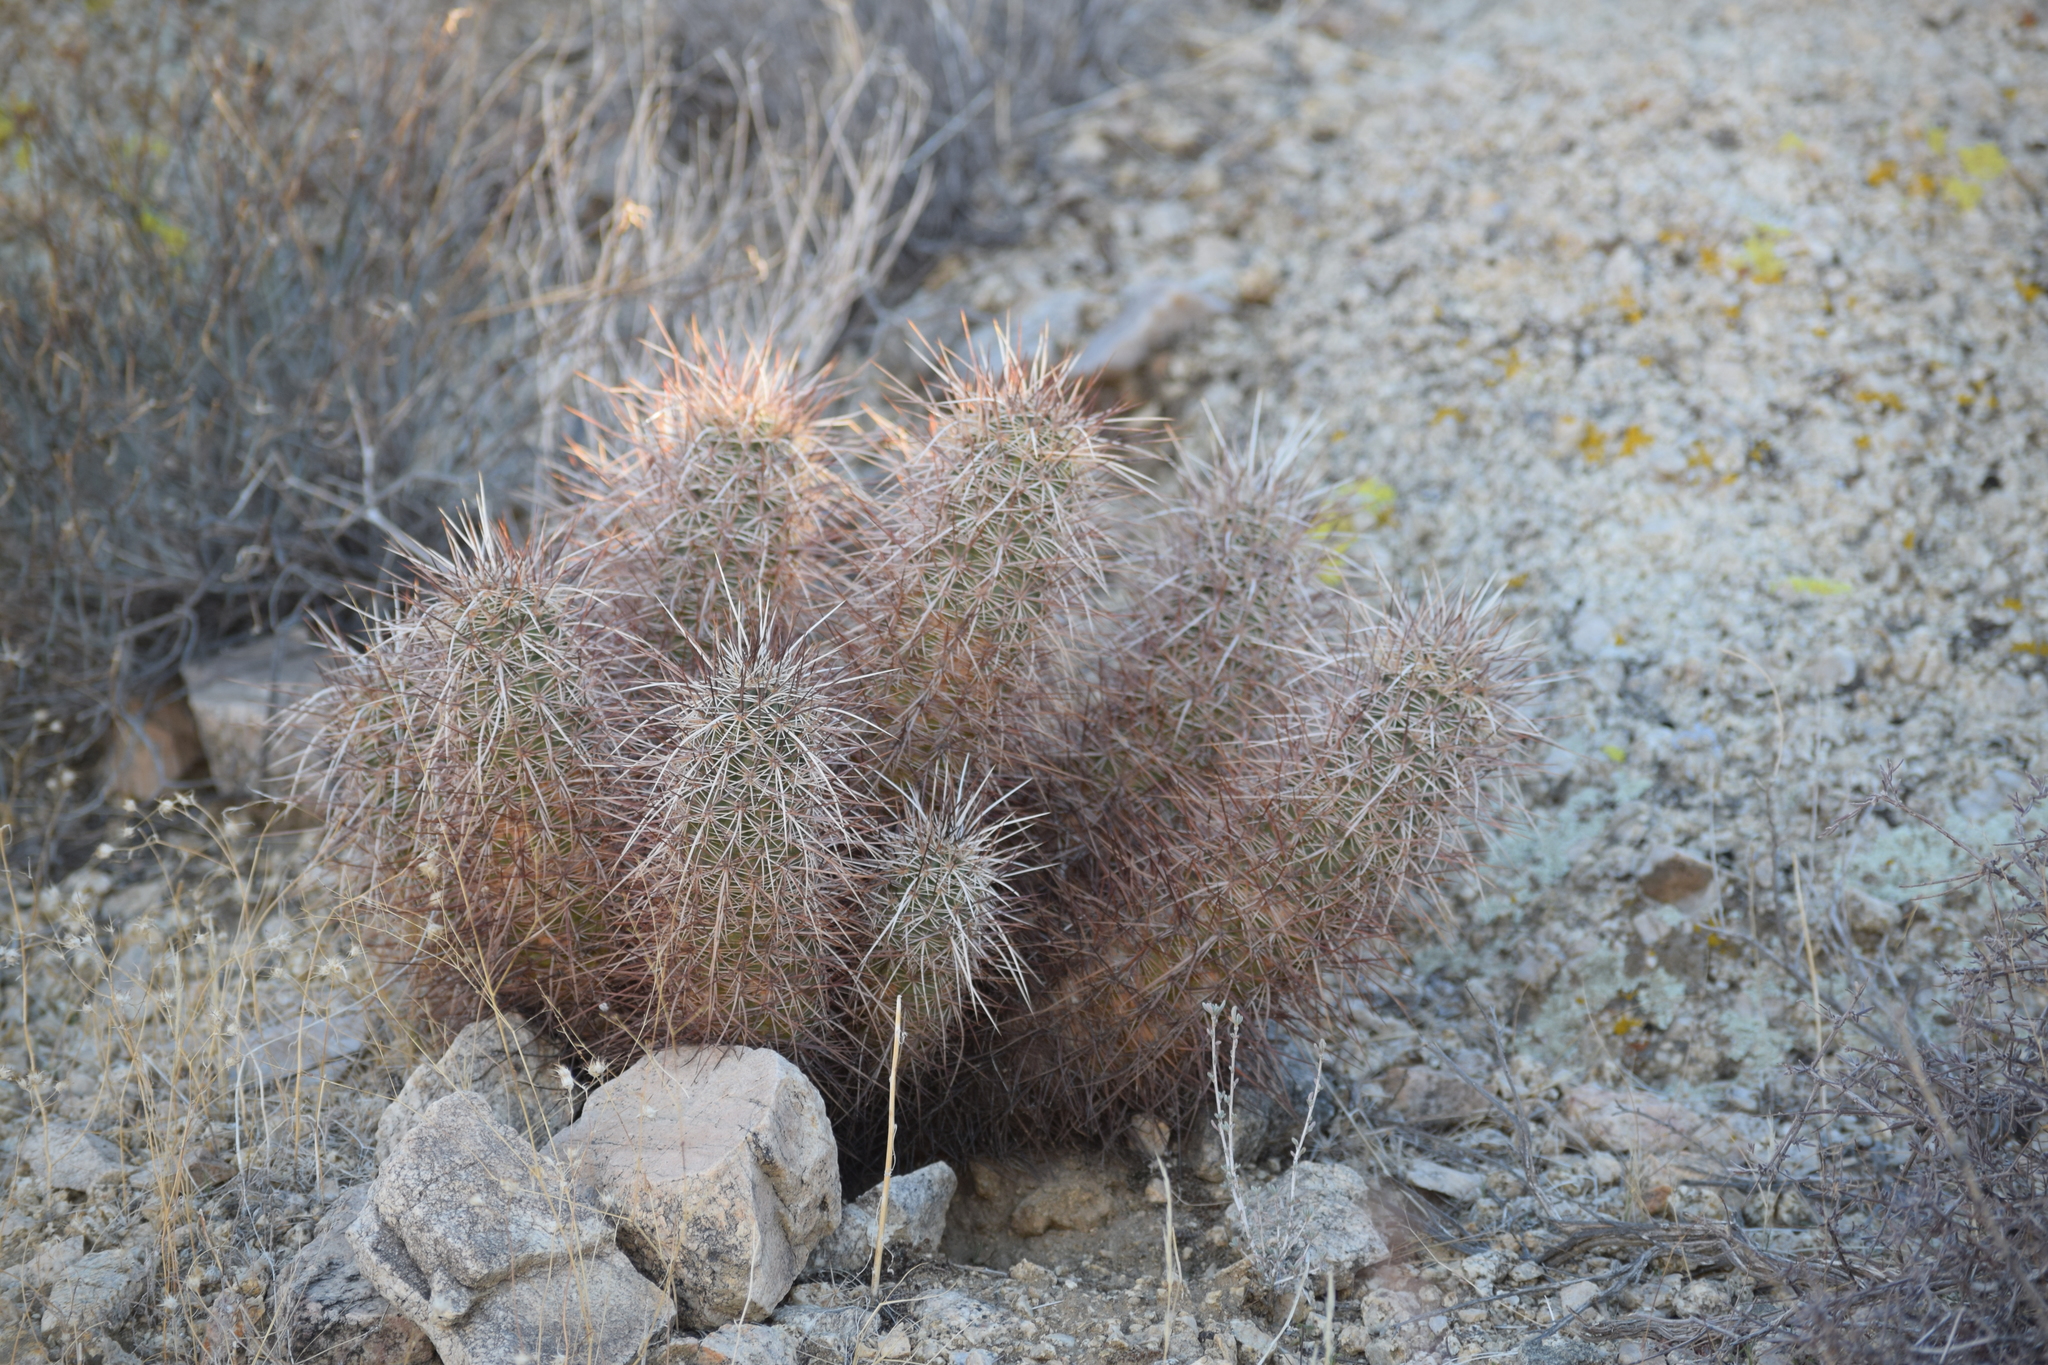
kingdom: Plantae
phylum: Tracheophyta
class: Magnoliopsida
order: Caryophyllales
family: Cactaceae
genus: Echinocereus
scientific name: Echinocereus engelmannii
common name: Engelmann's hedgehog cactus
